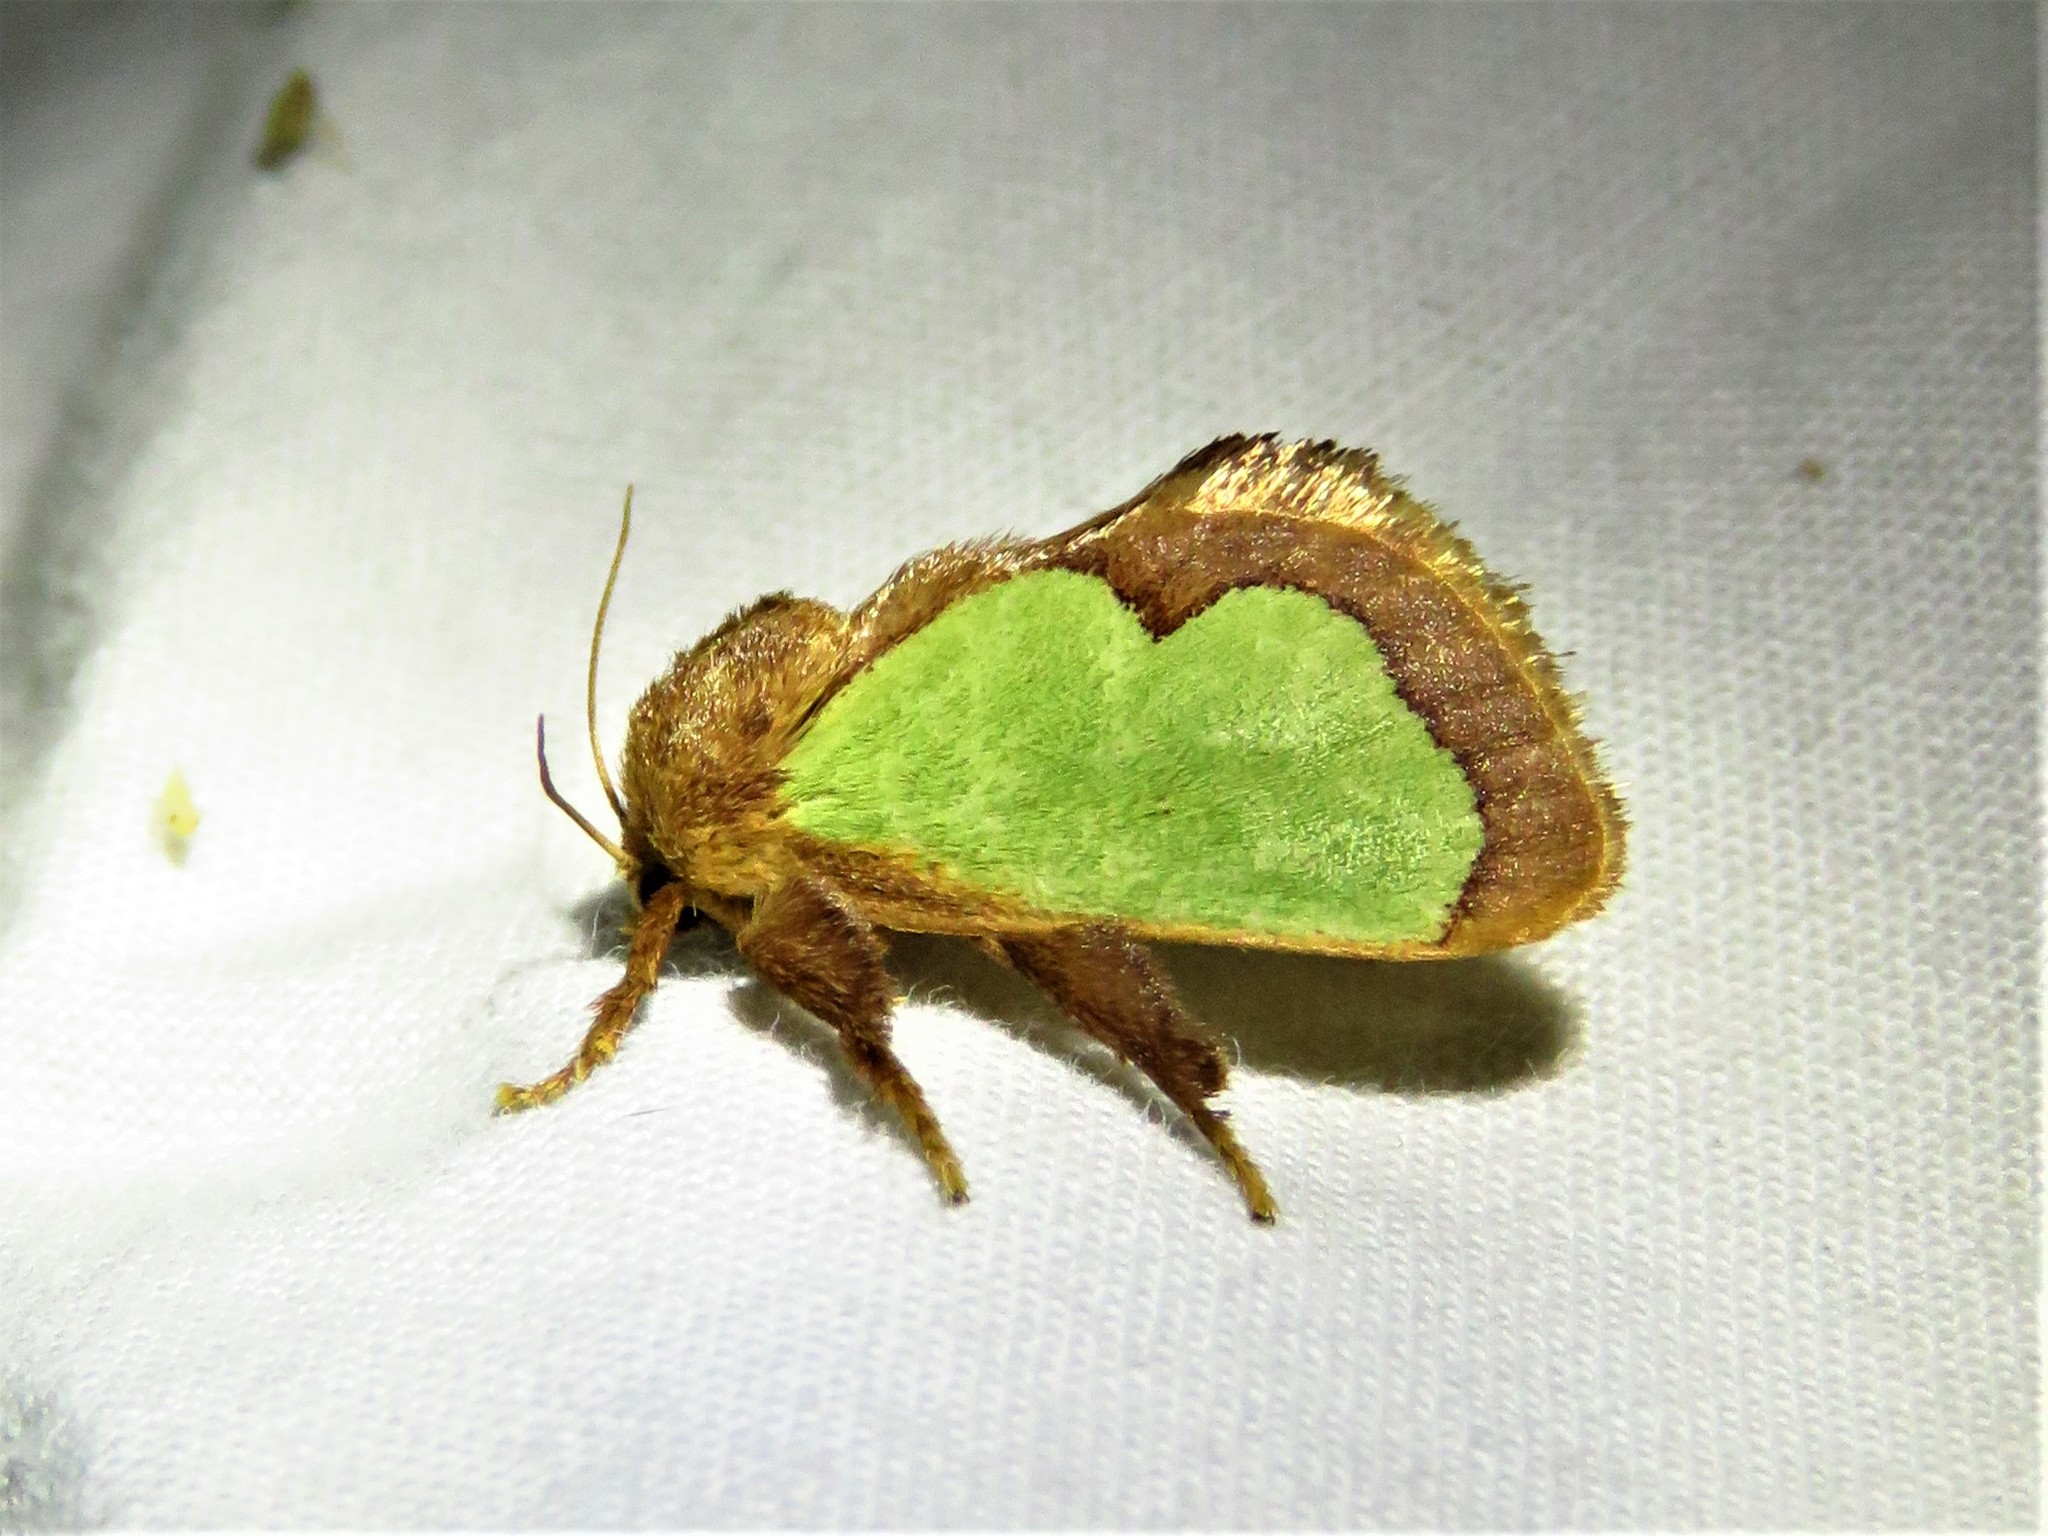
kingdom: Animalia
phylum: Arthropoda
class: Insecta
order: Lepidoptera
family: Limacodidae
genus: Euclea
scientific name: Euclea incisa
